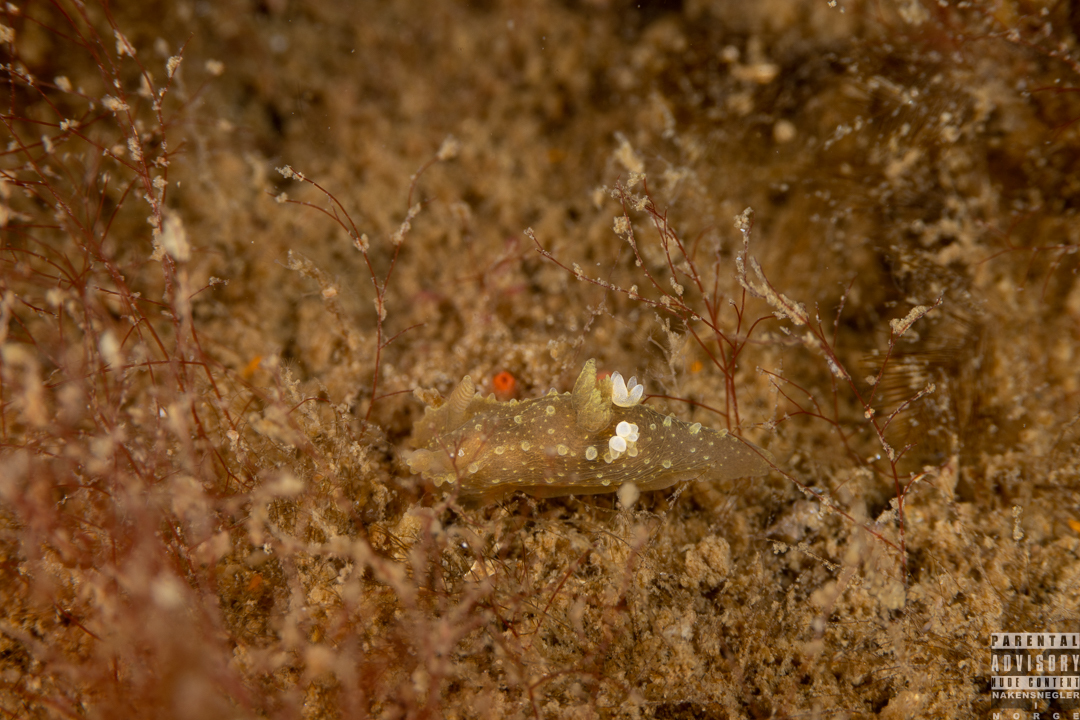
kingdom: Animalia
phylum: Mollusca
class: Gastropoda
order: Nudibranchia
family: Polyceridae
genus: Palio
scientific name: Palio dubia
